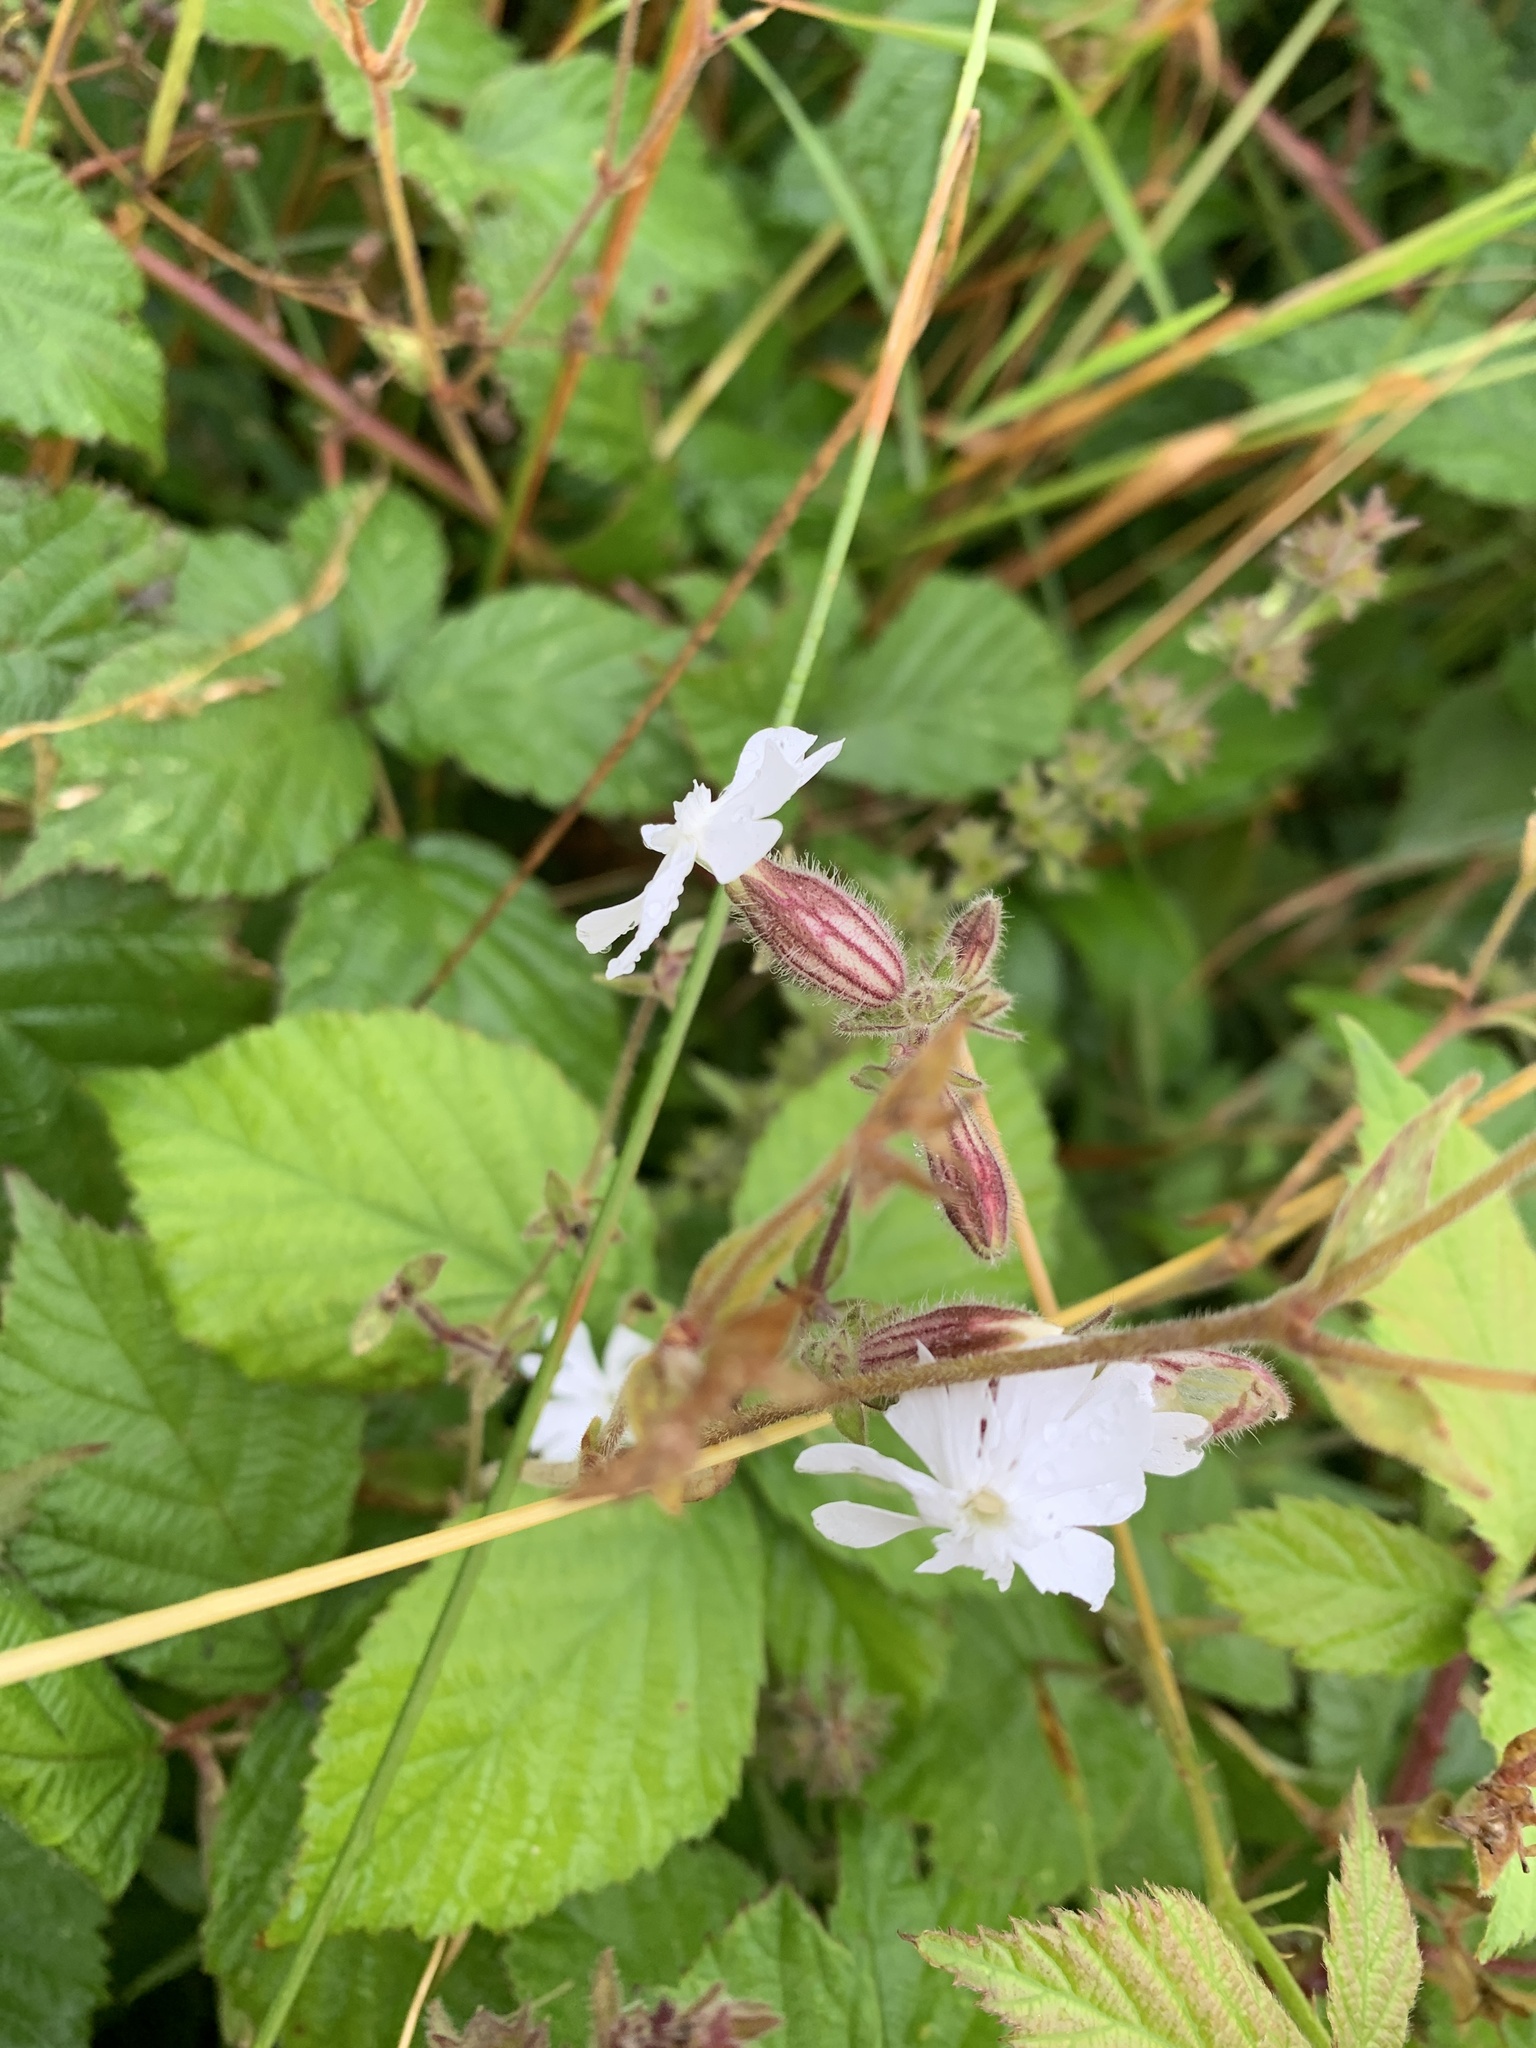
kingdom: Plantae
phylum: Tracheophyta
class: Magnoliopsida
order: Caryophyllales
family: Caryophyllaceae
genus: Silene
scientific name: Silene latifolia
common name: White campion
